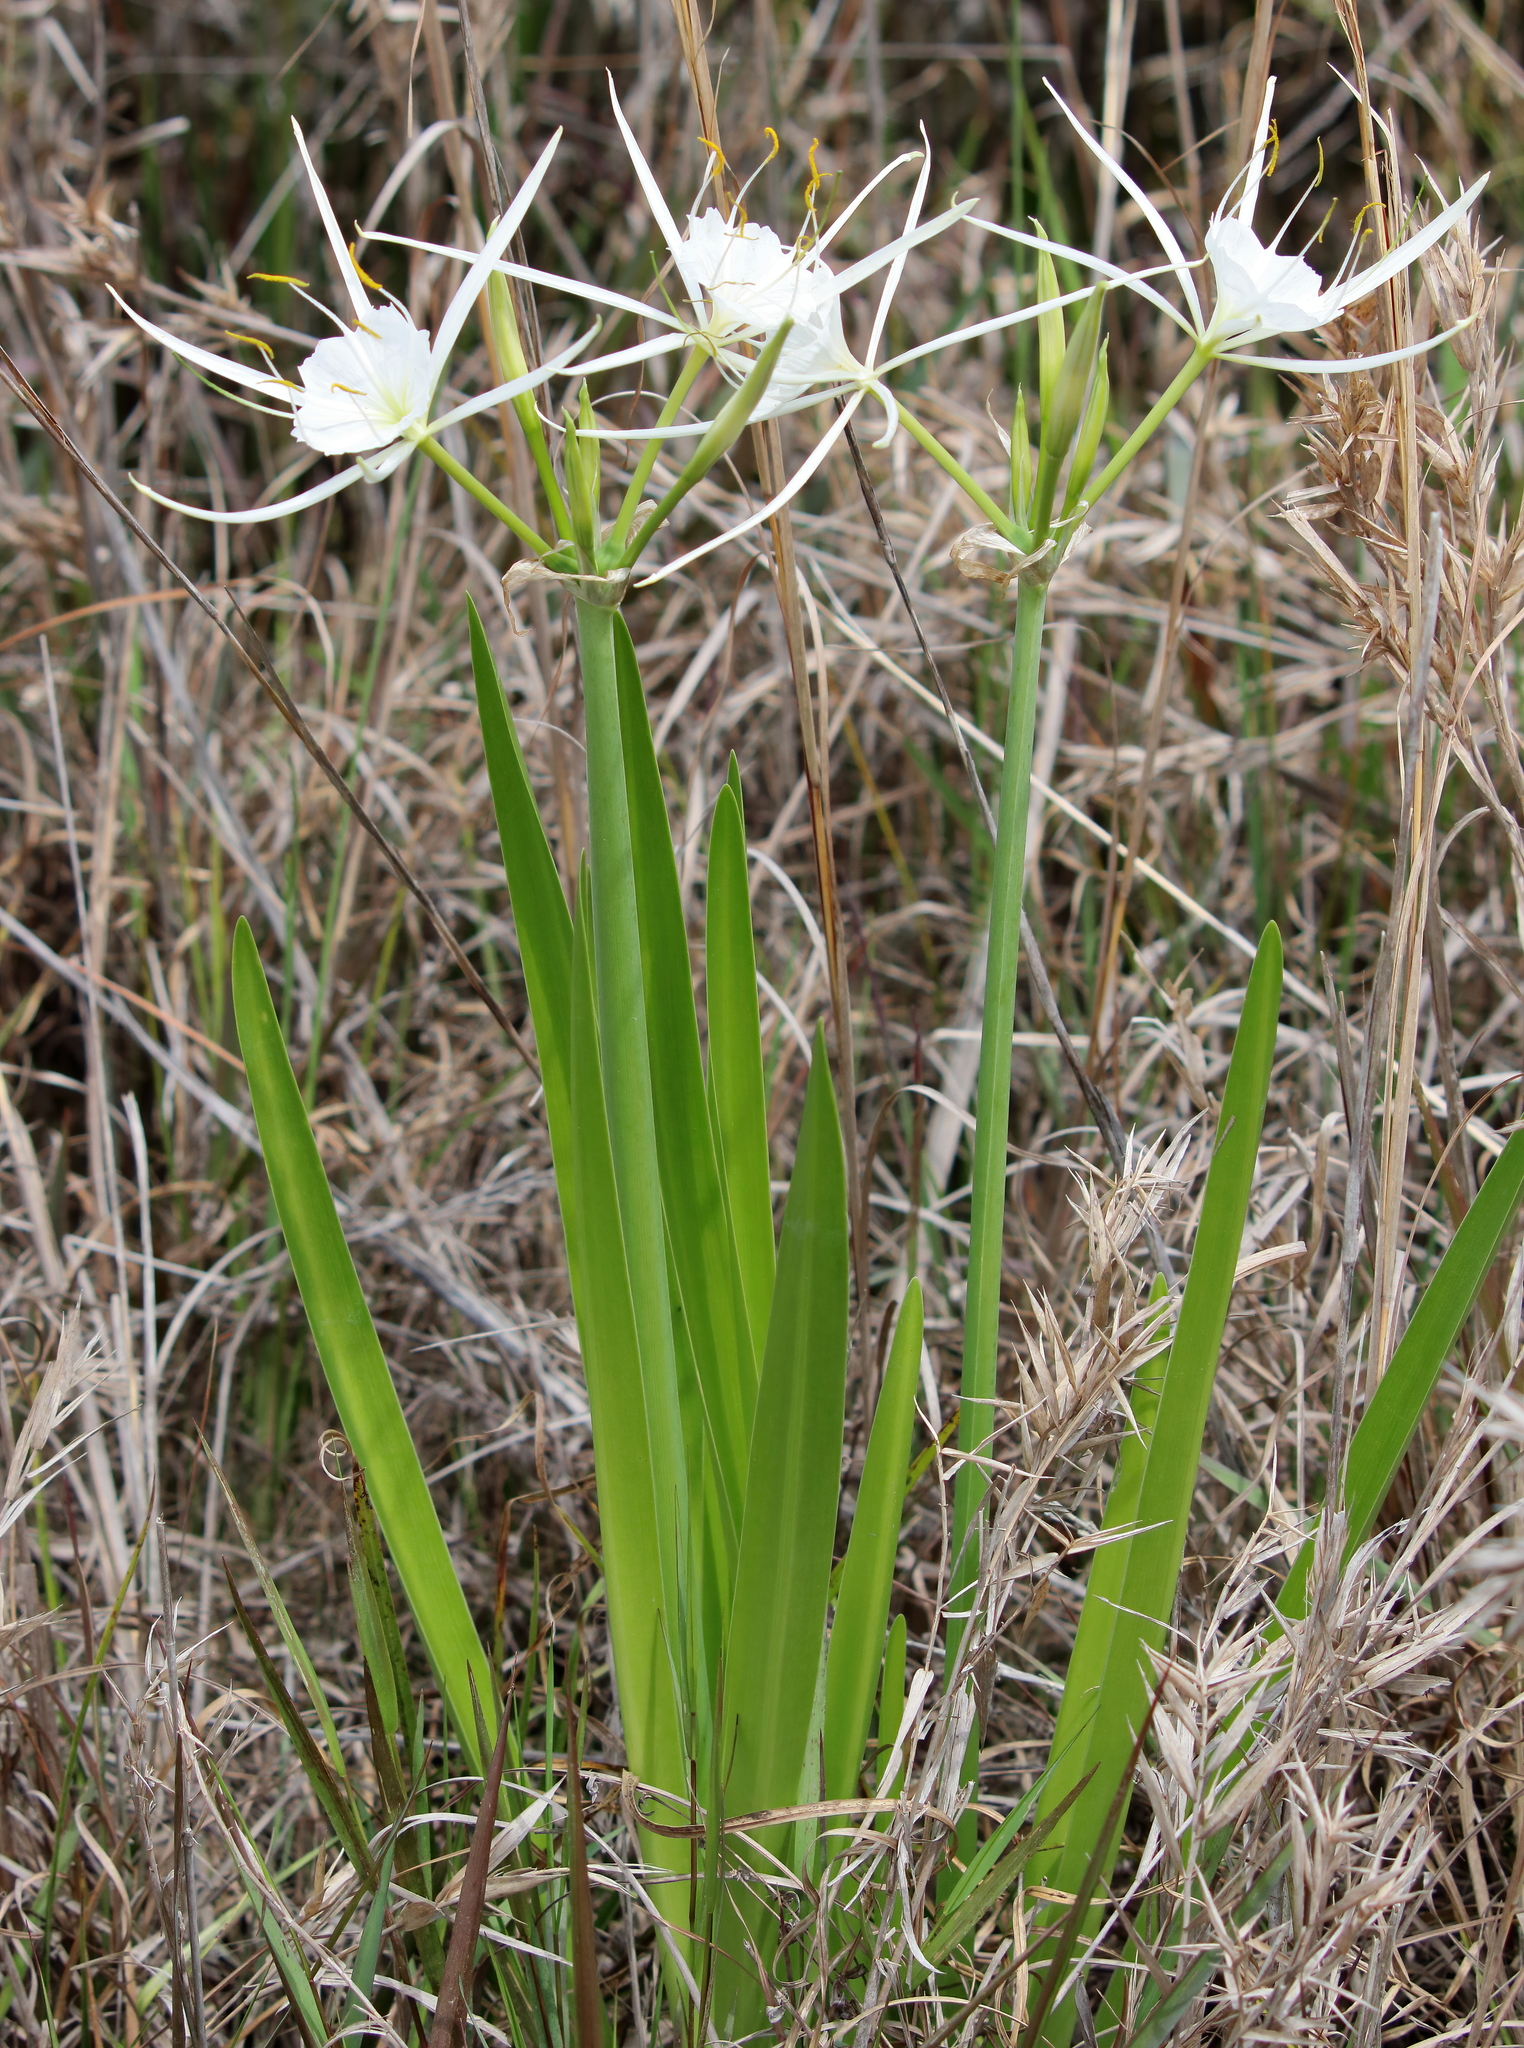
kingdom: Plantae
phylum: Tracheophyta
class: Liliopsida
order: Asparagales
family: Amaryllidaceae
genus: Hymenocallis
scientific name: Hymenocallis liriosme
